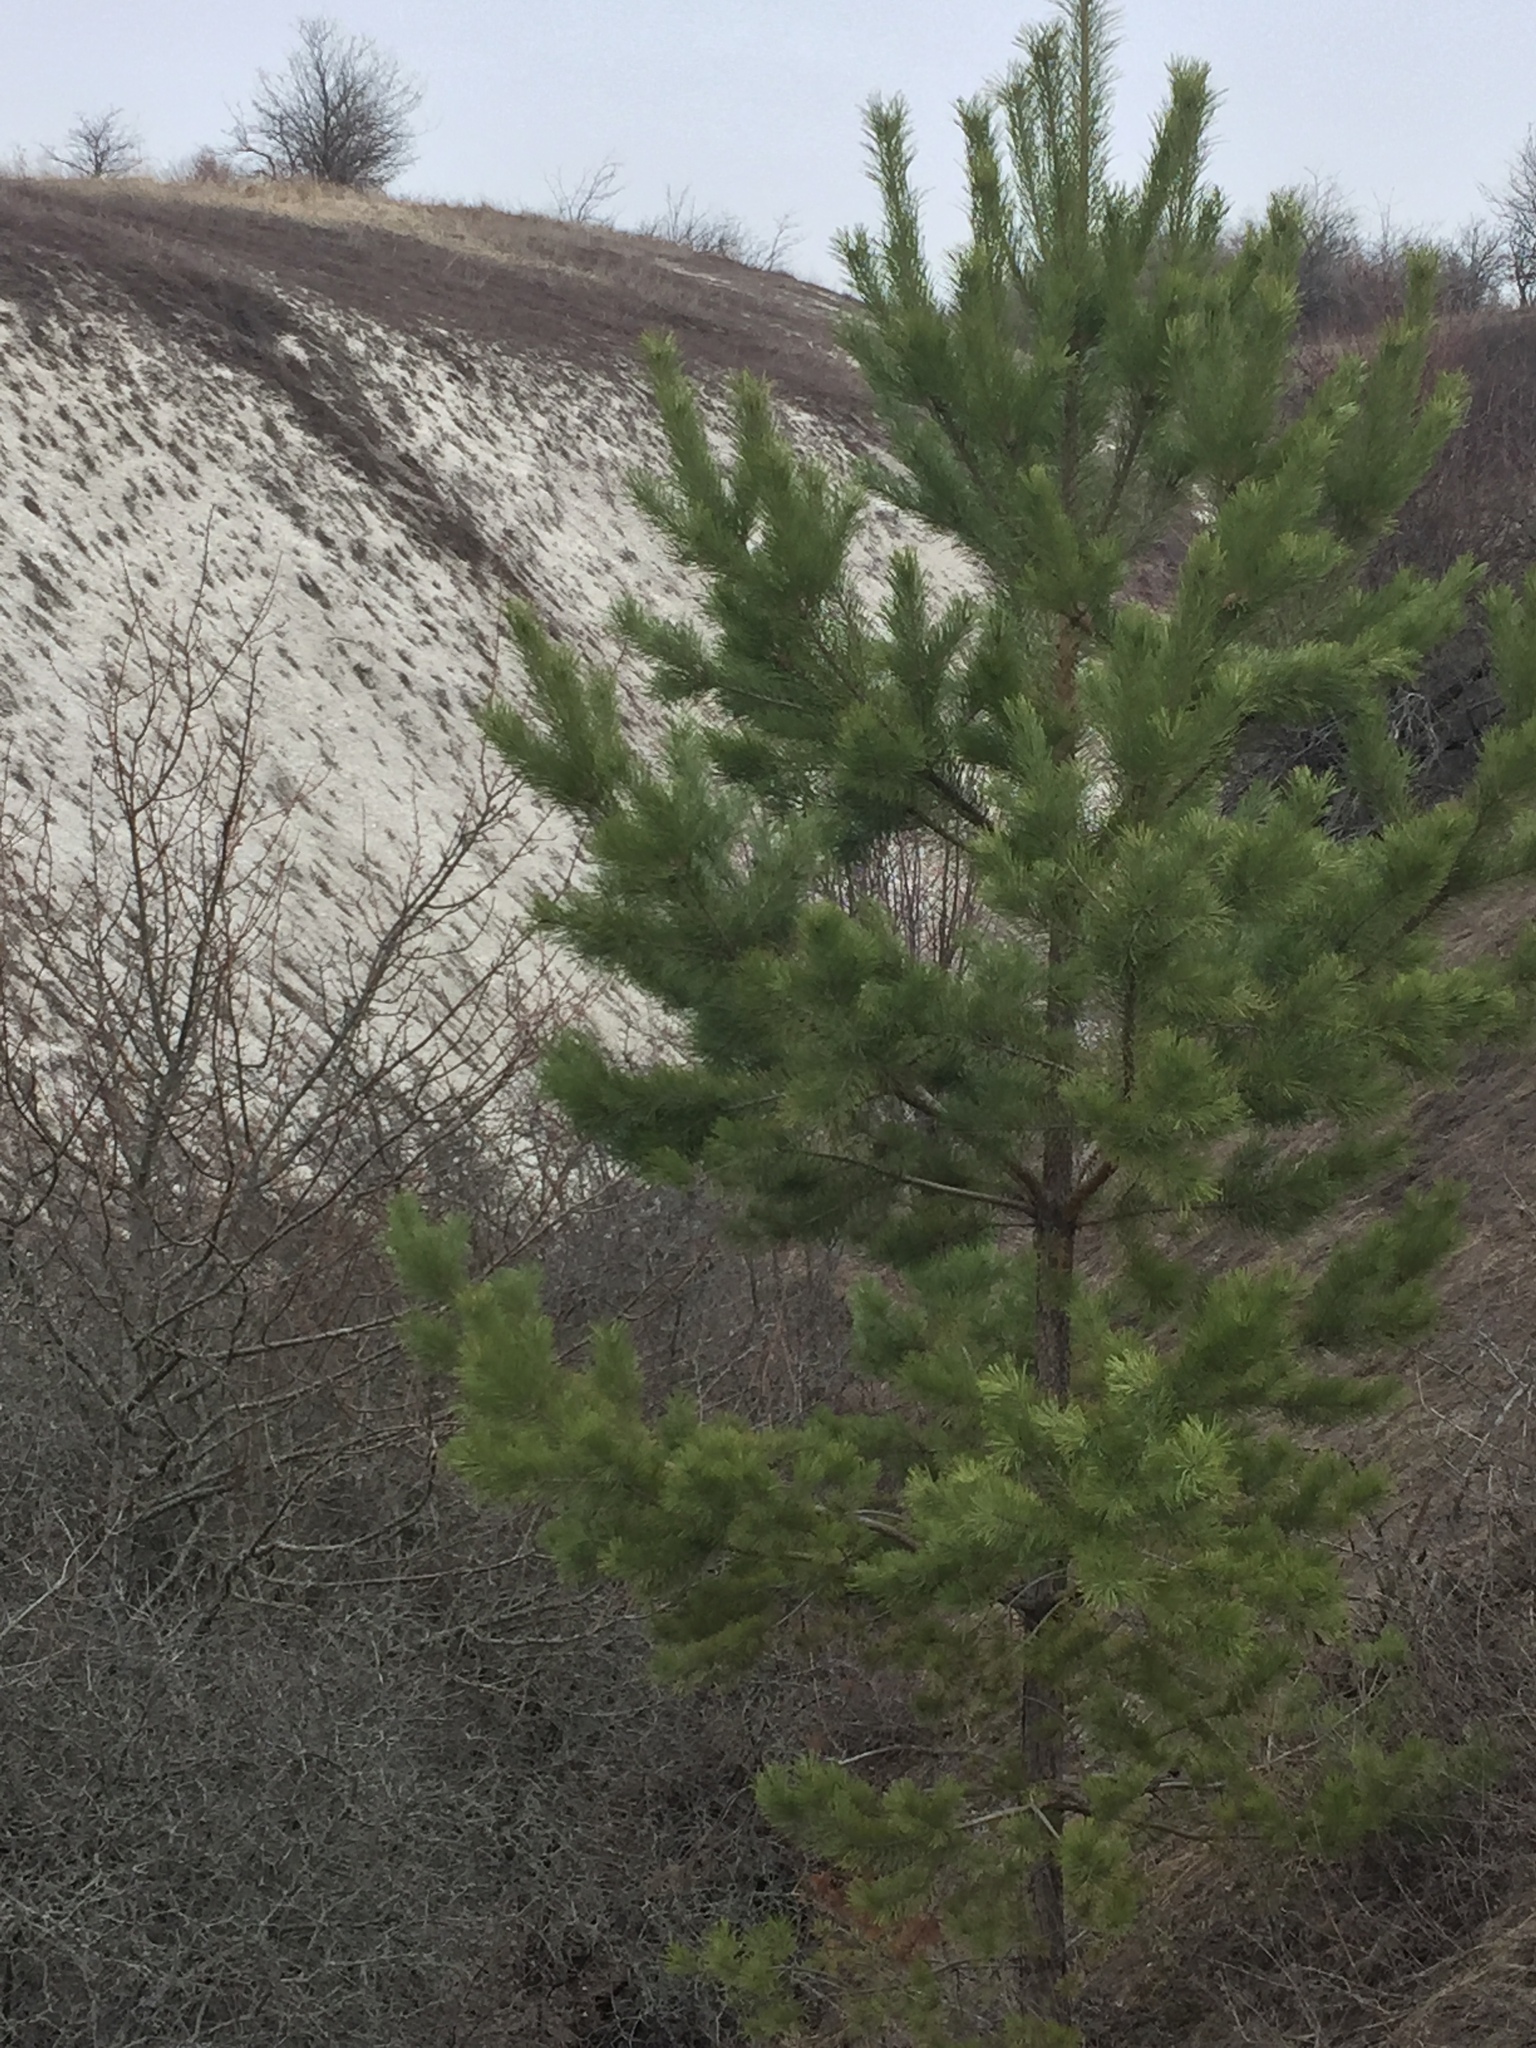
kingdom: Plantae
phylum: Tracheophyta
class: Pinopsida
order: Pinales
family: Pinaceae
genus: Pinus
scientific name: Pinus sylvestris
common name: Scots pine
